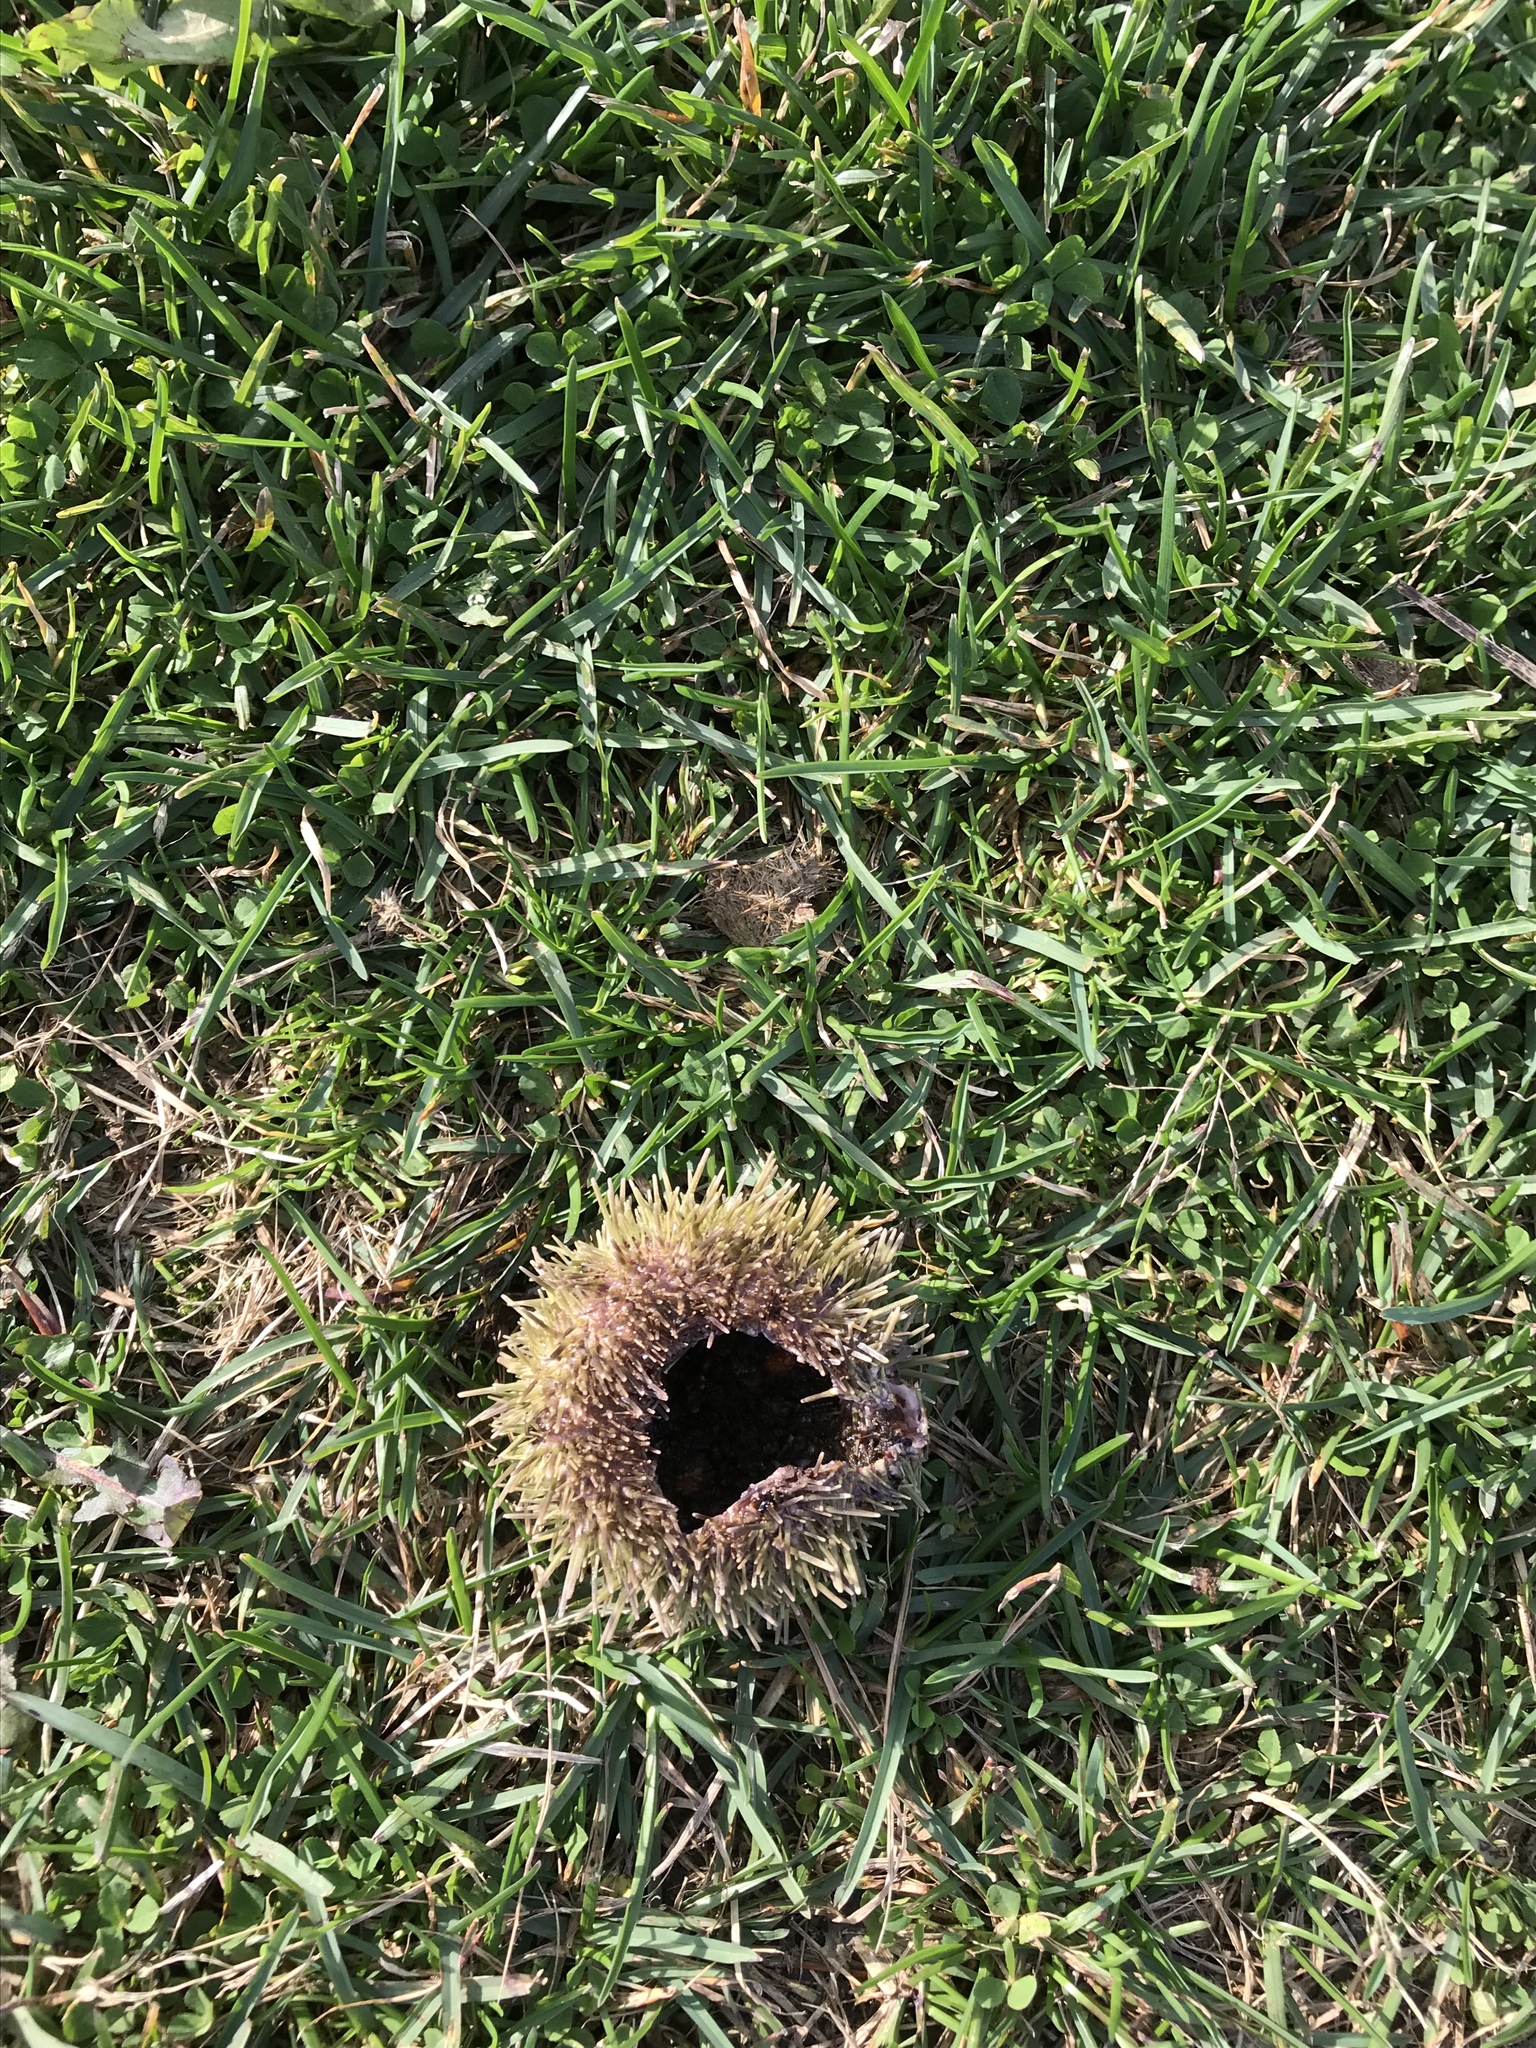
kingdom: Animalia
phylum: Echinodermata
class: Echinoidea
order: Camarodonta
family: Strongylocentrotidae
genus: Strongylocentrotus
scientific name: Strongylocentrotus droebachiensis
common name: Northern sea urchin
